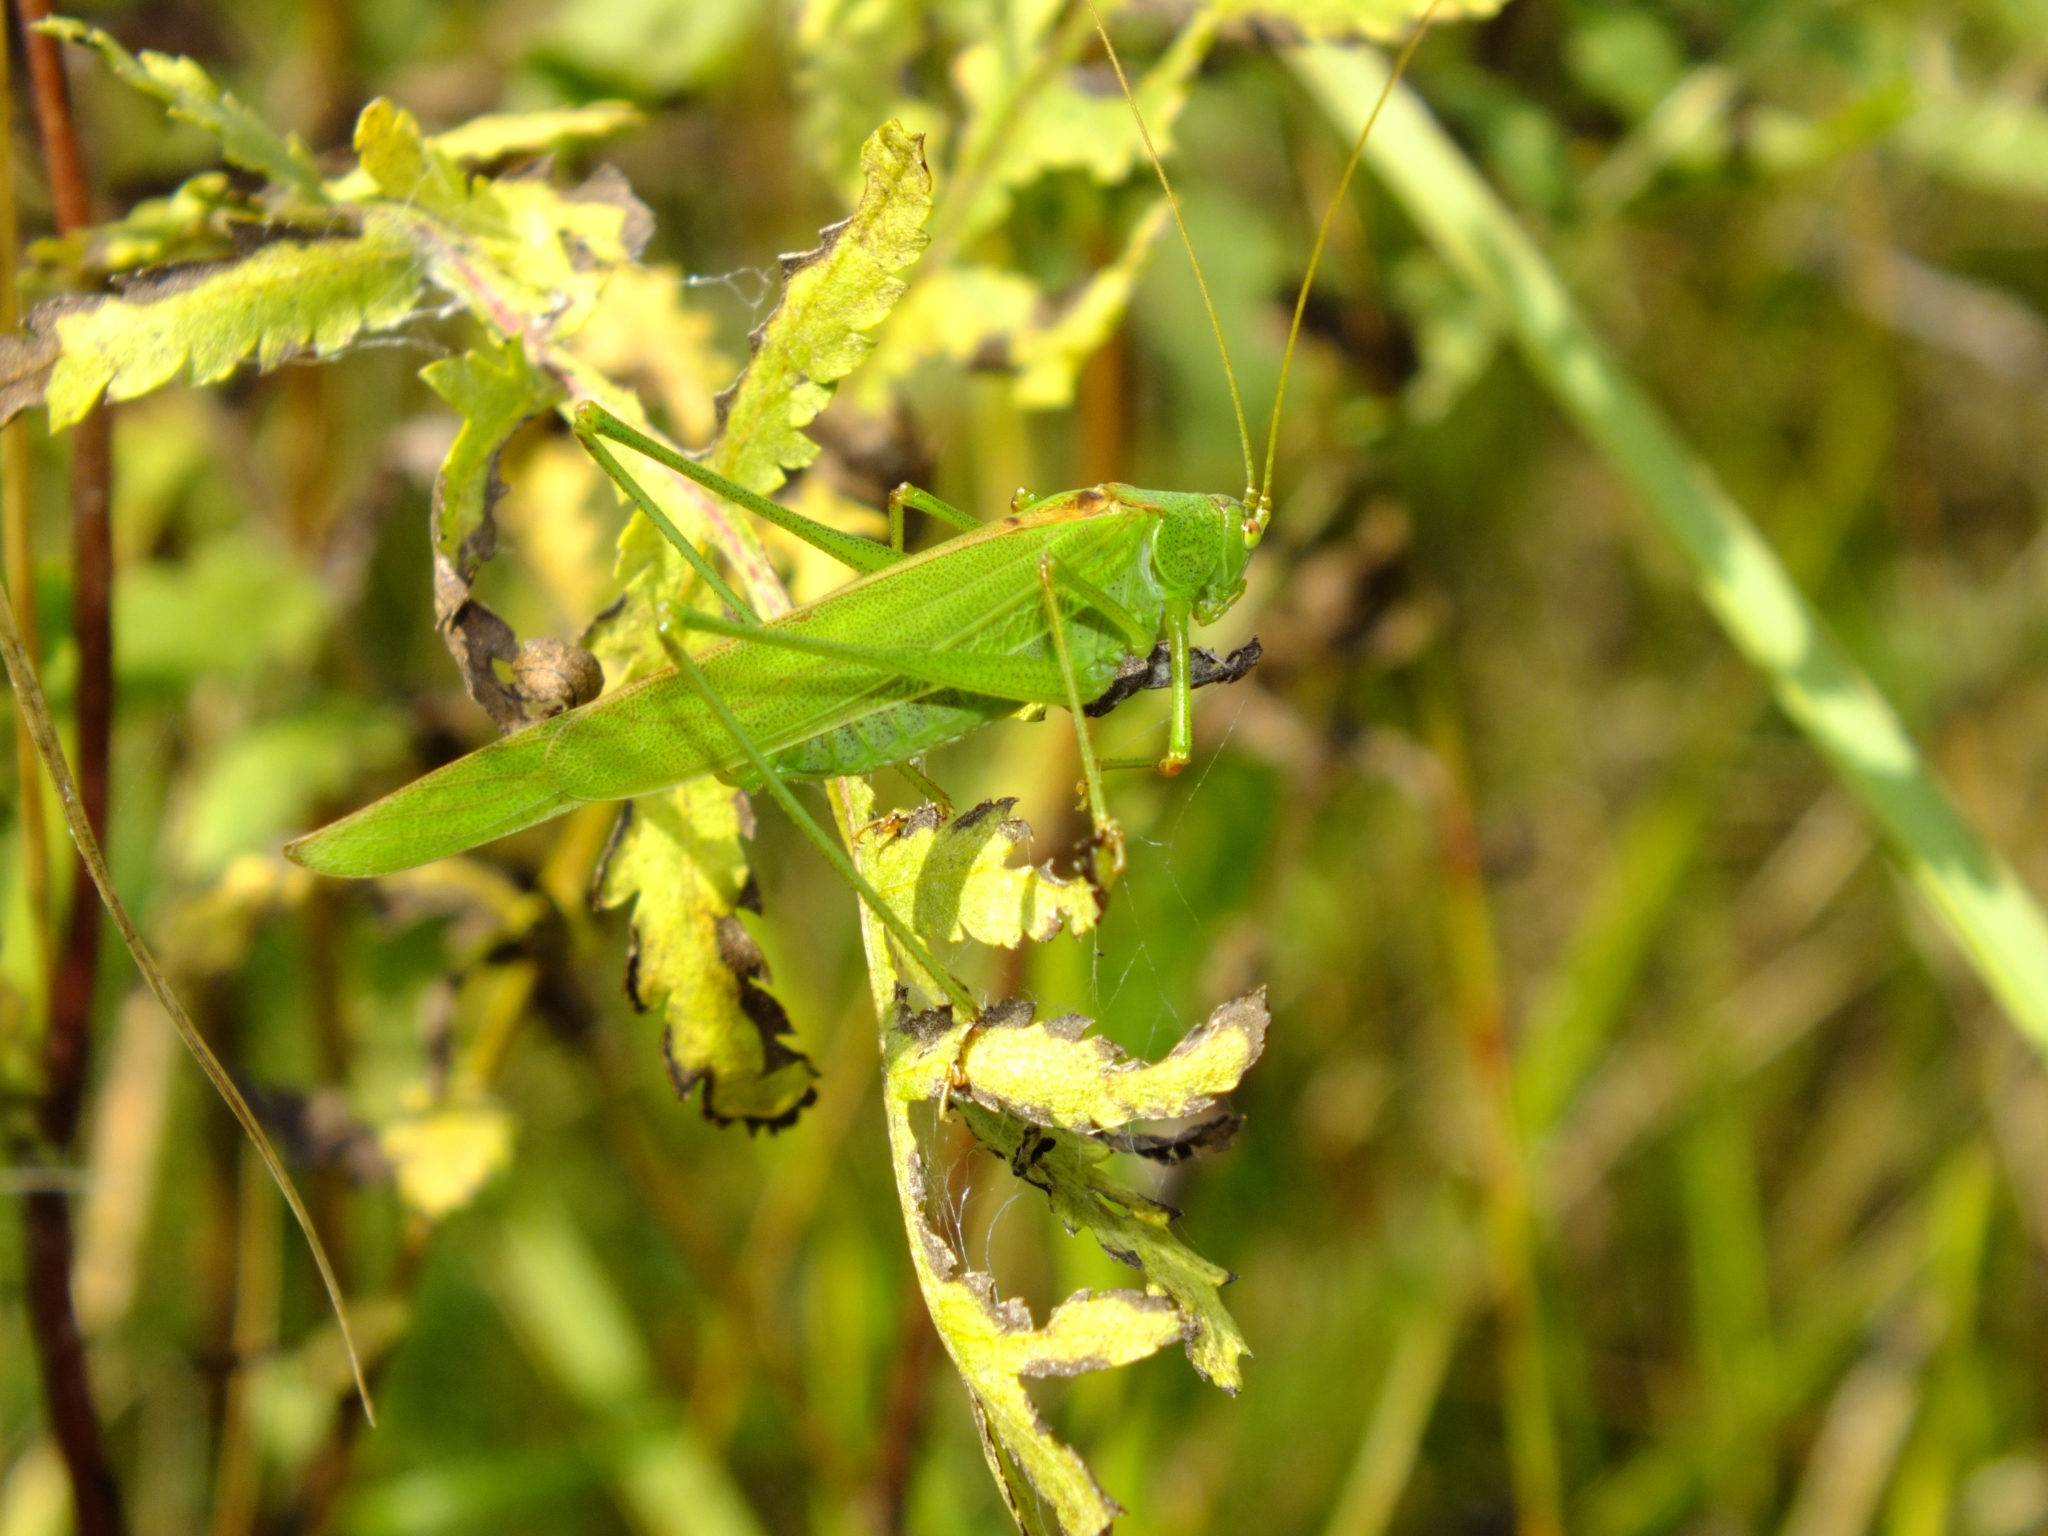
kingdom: Animalia
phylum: Arthropoda
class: Insecta
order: Orthoptera
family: Tettigoniidae
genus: Phaneroptera
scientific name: Phaneroptera falcata
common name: Sickle-bearing bush-cricket
